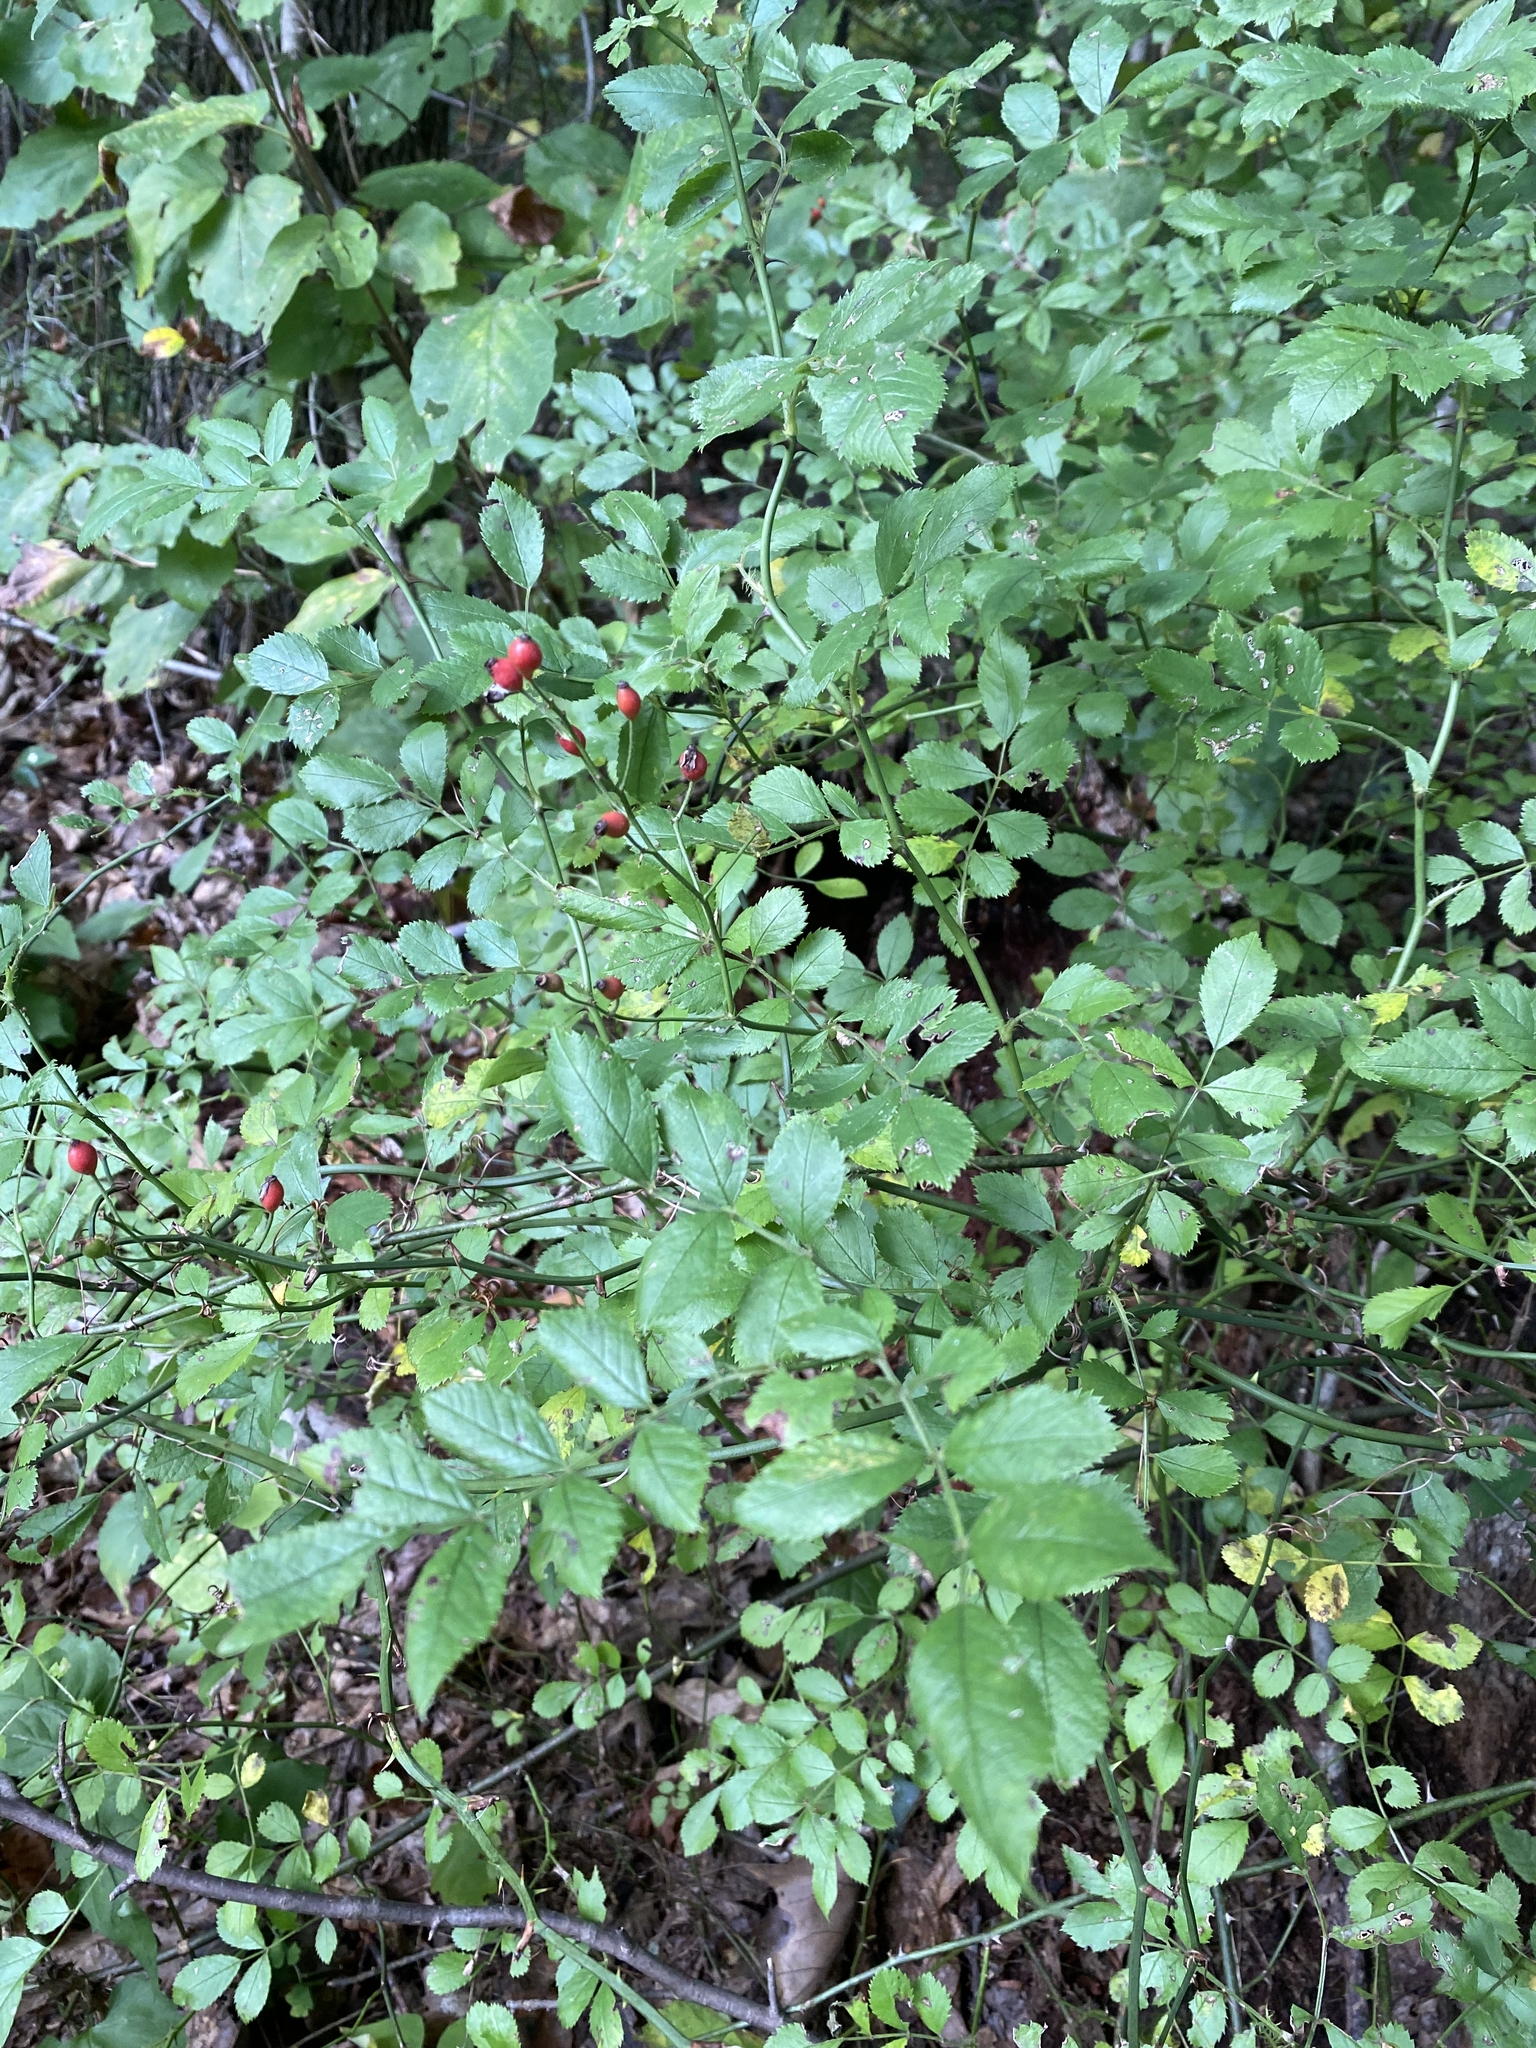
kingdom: Plantae
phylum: Tracheophyta
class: Magnoliopsida
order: Rosales
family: Rosaceae
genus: Rosa
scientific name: Rosa multiflora
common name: Multiflora rose
